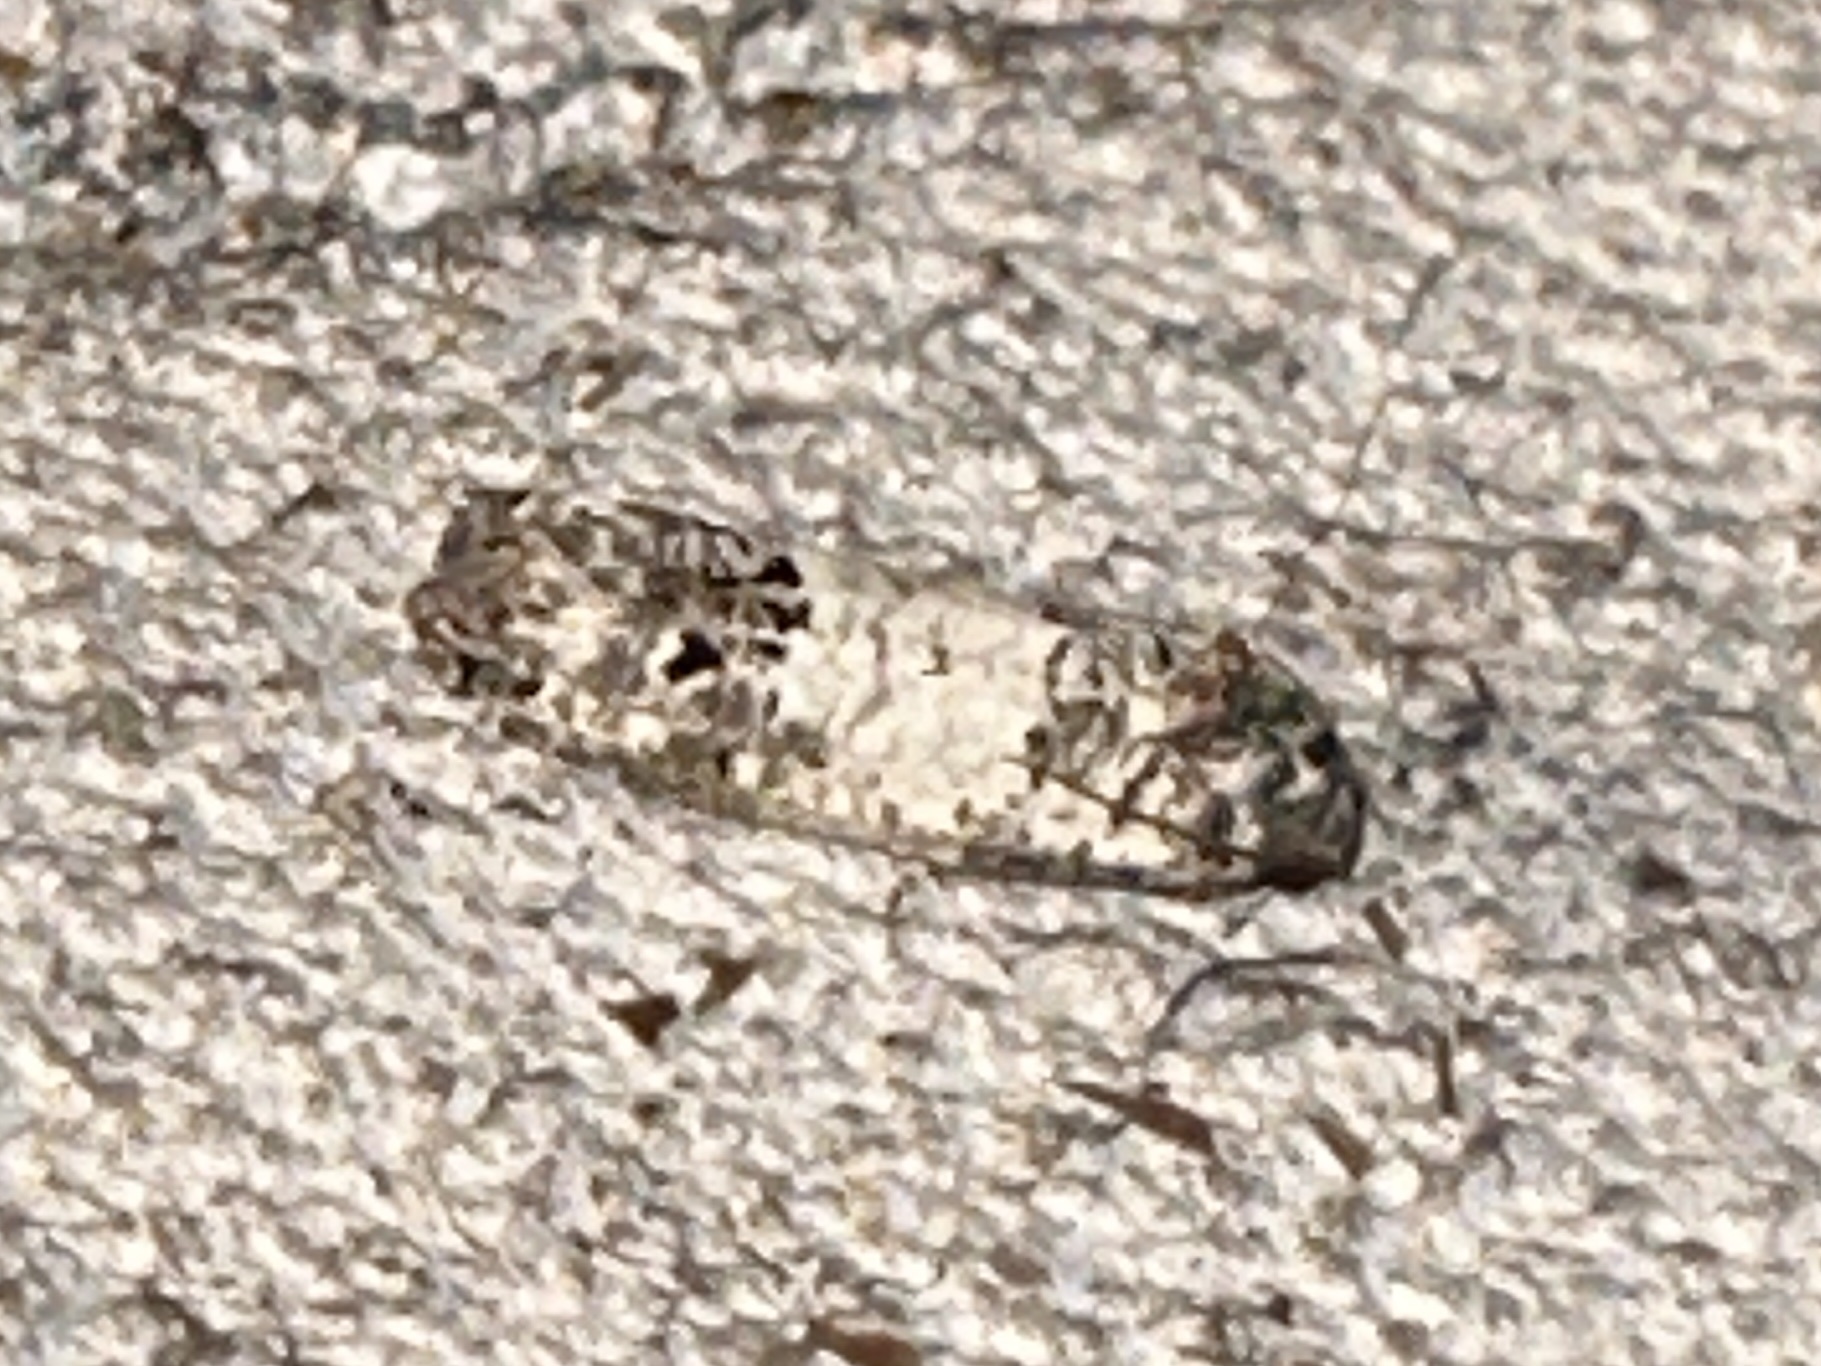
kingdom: Animalia
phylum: Arthropoda
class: Insecta
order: Lepidoptera
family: Tortricidae
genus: Epiblema
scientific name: Epiblema carolinana
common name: Gray-blotched epiblema moth
